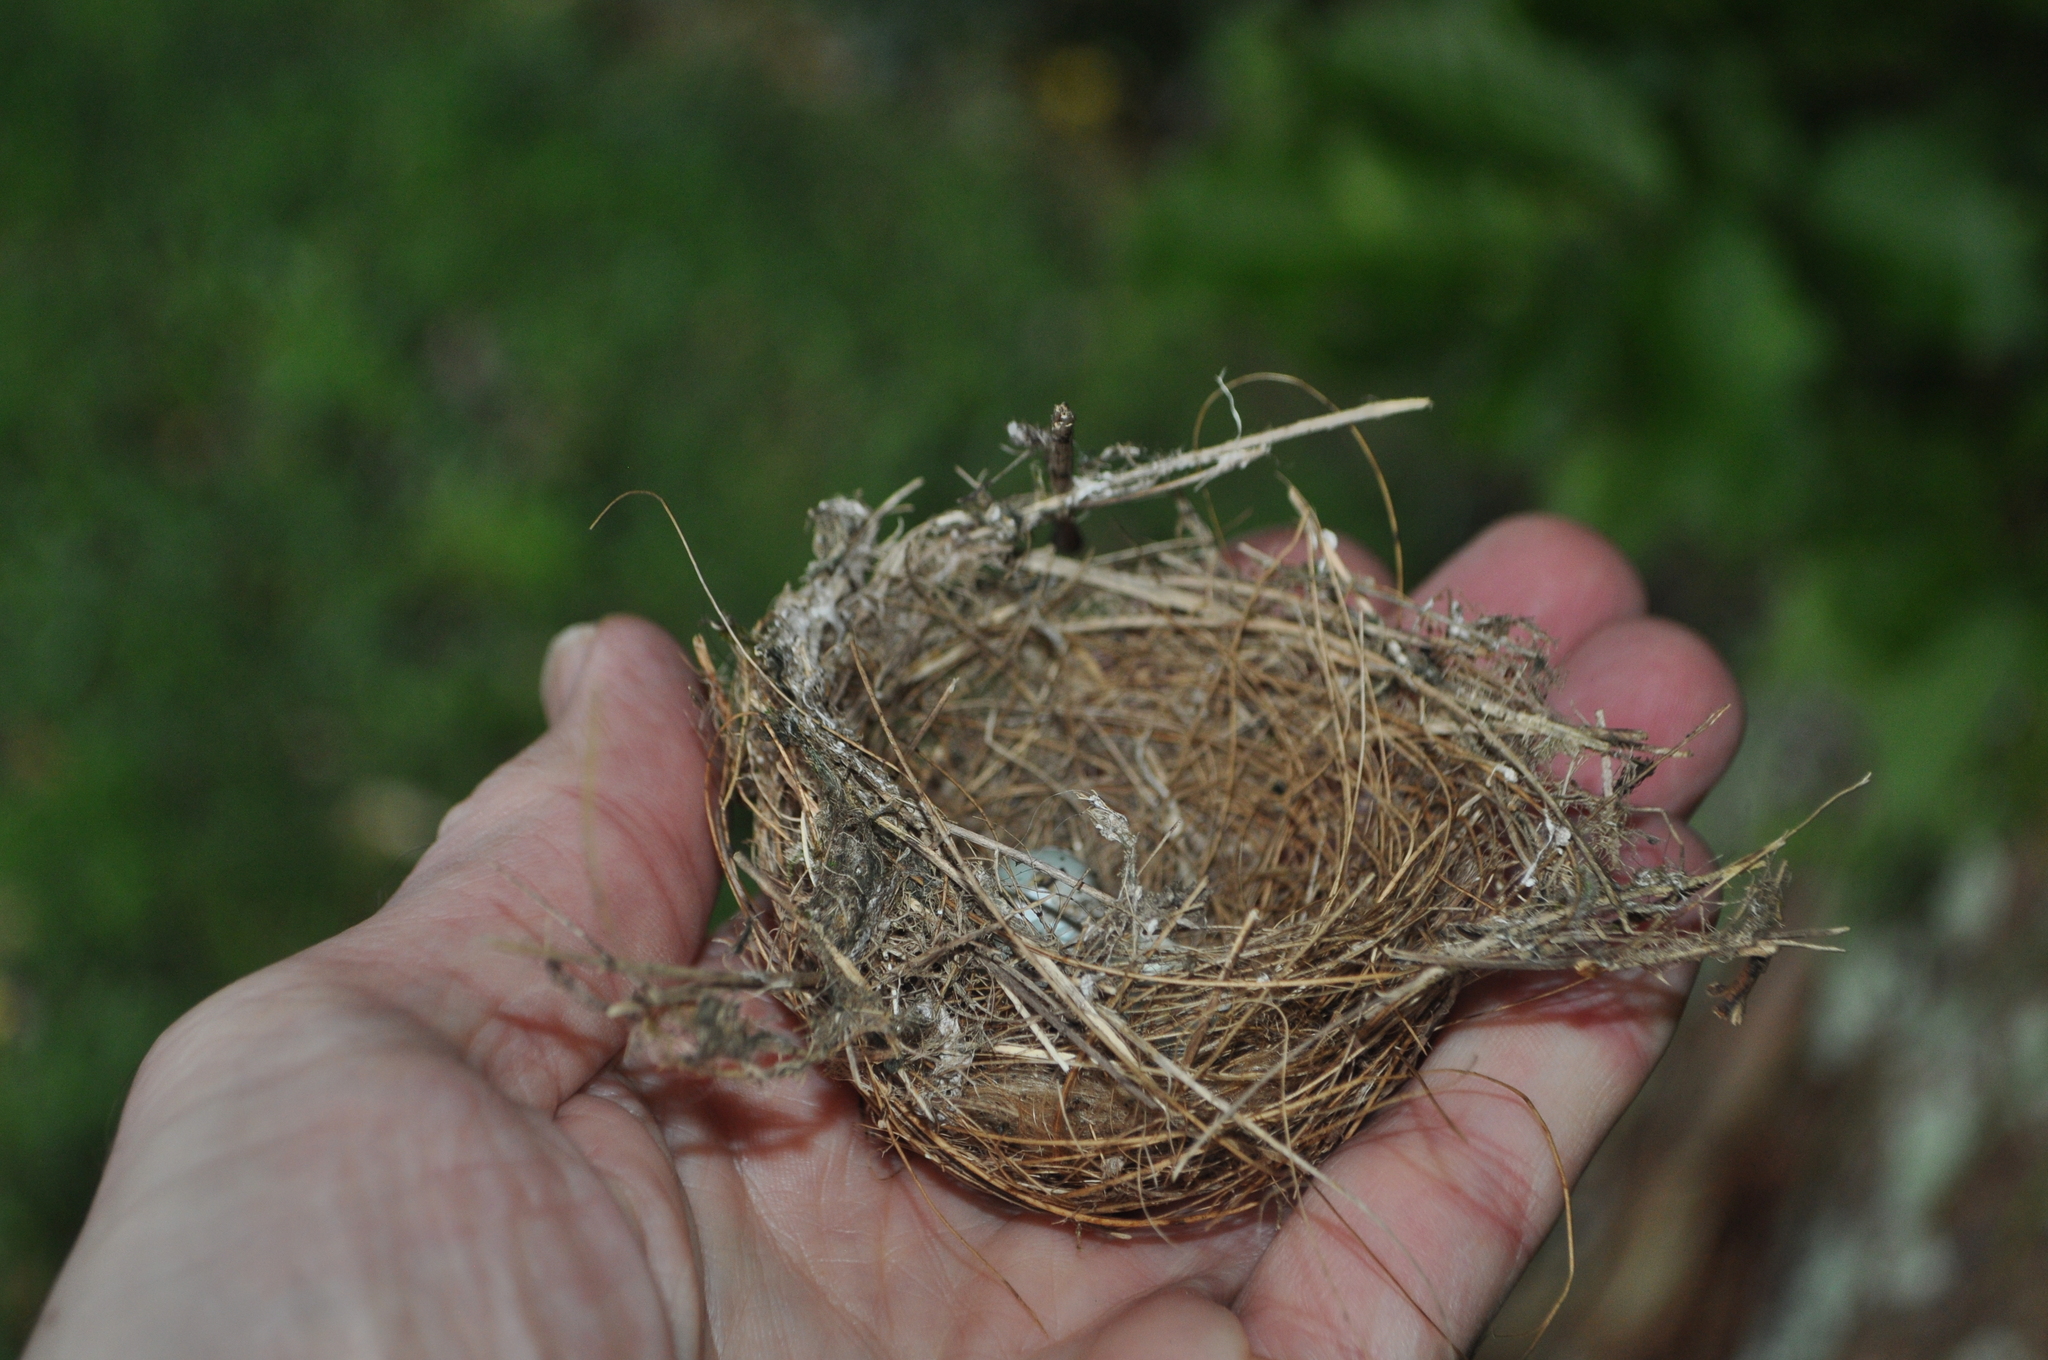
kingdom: Animalia
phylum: Chordata
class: Aves
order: Passeriformes
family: Zosteropidae
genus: Zosterops
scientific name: Zosterops lateralis
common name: Silvereye
